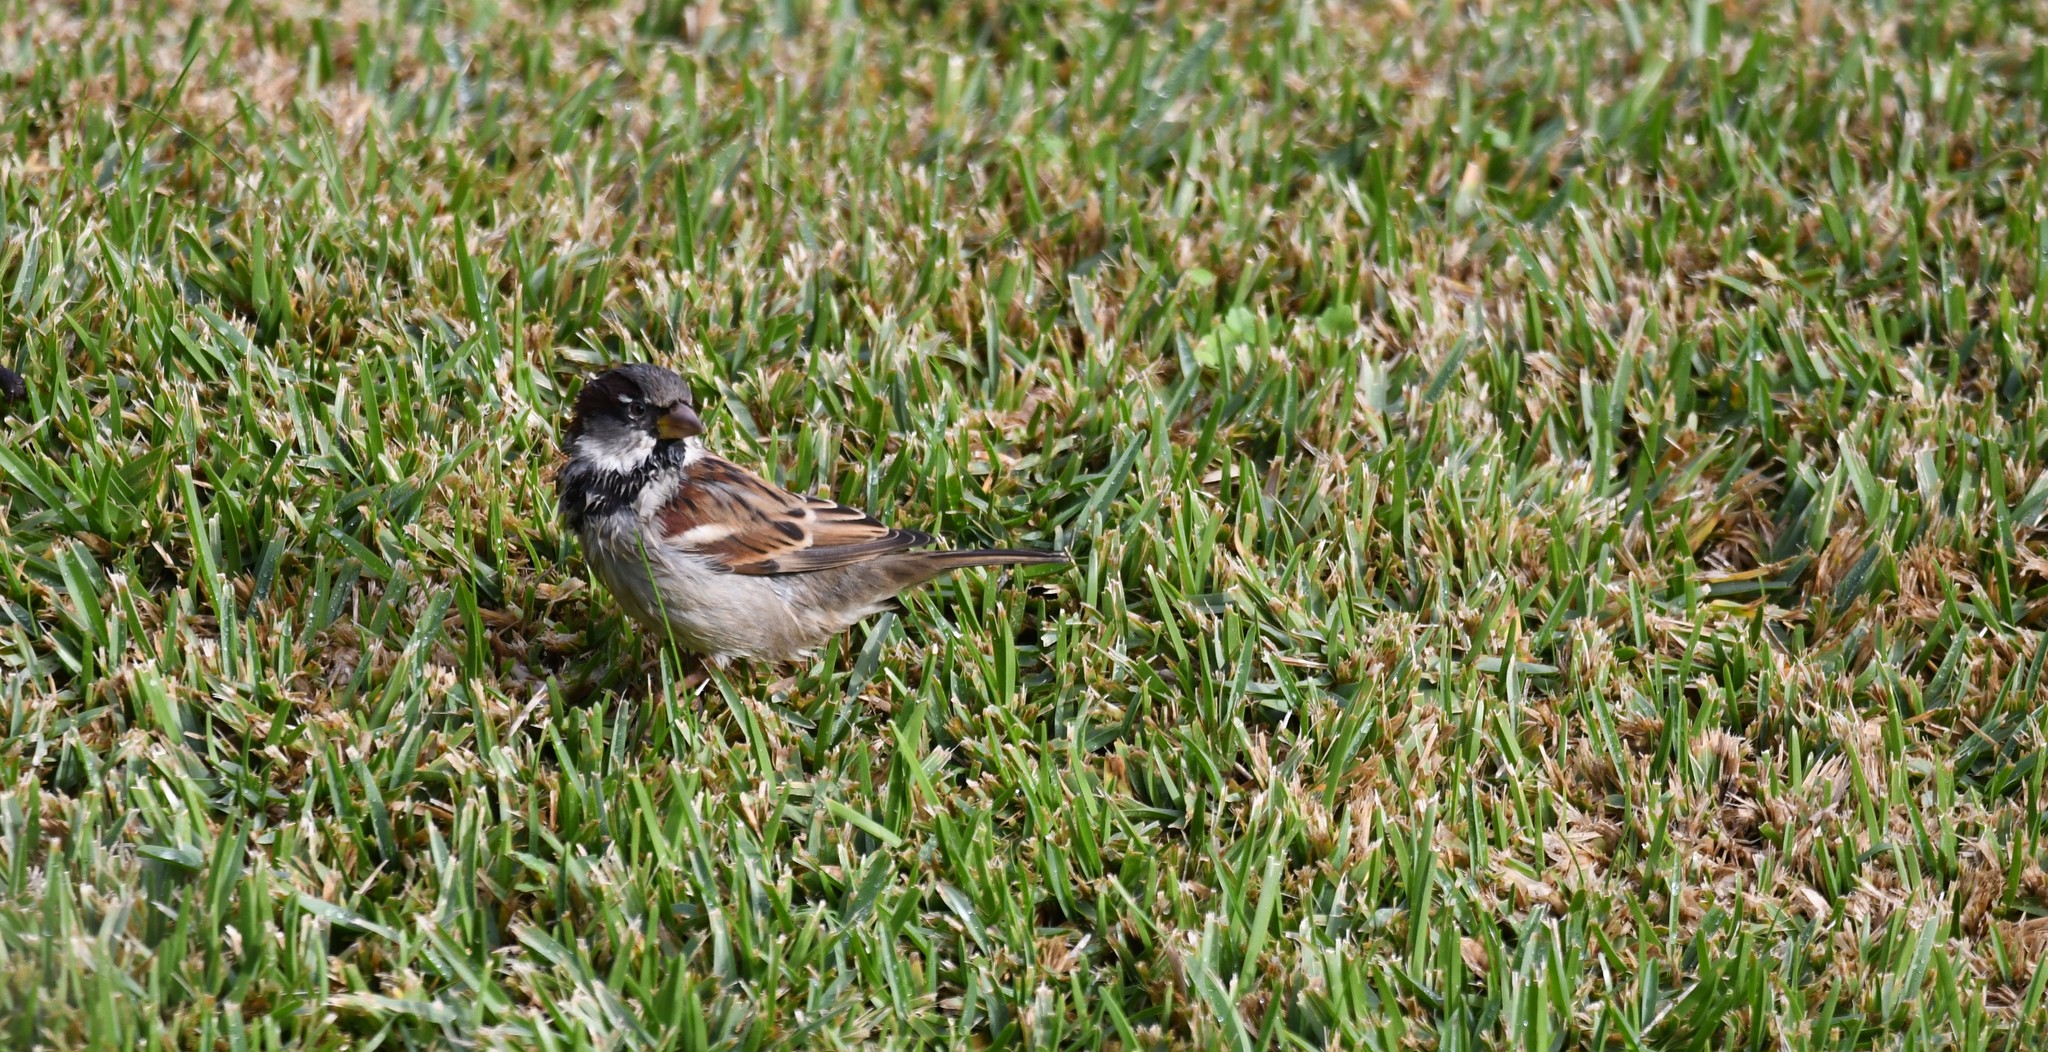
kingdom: Animalia
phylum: Chordata
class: Aves
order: Passeriformes
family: Passeridae
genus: Passer
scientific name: Passer domesticus
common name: House sparrow
